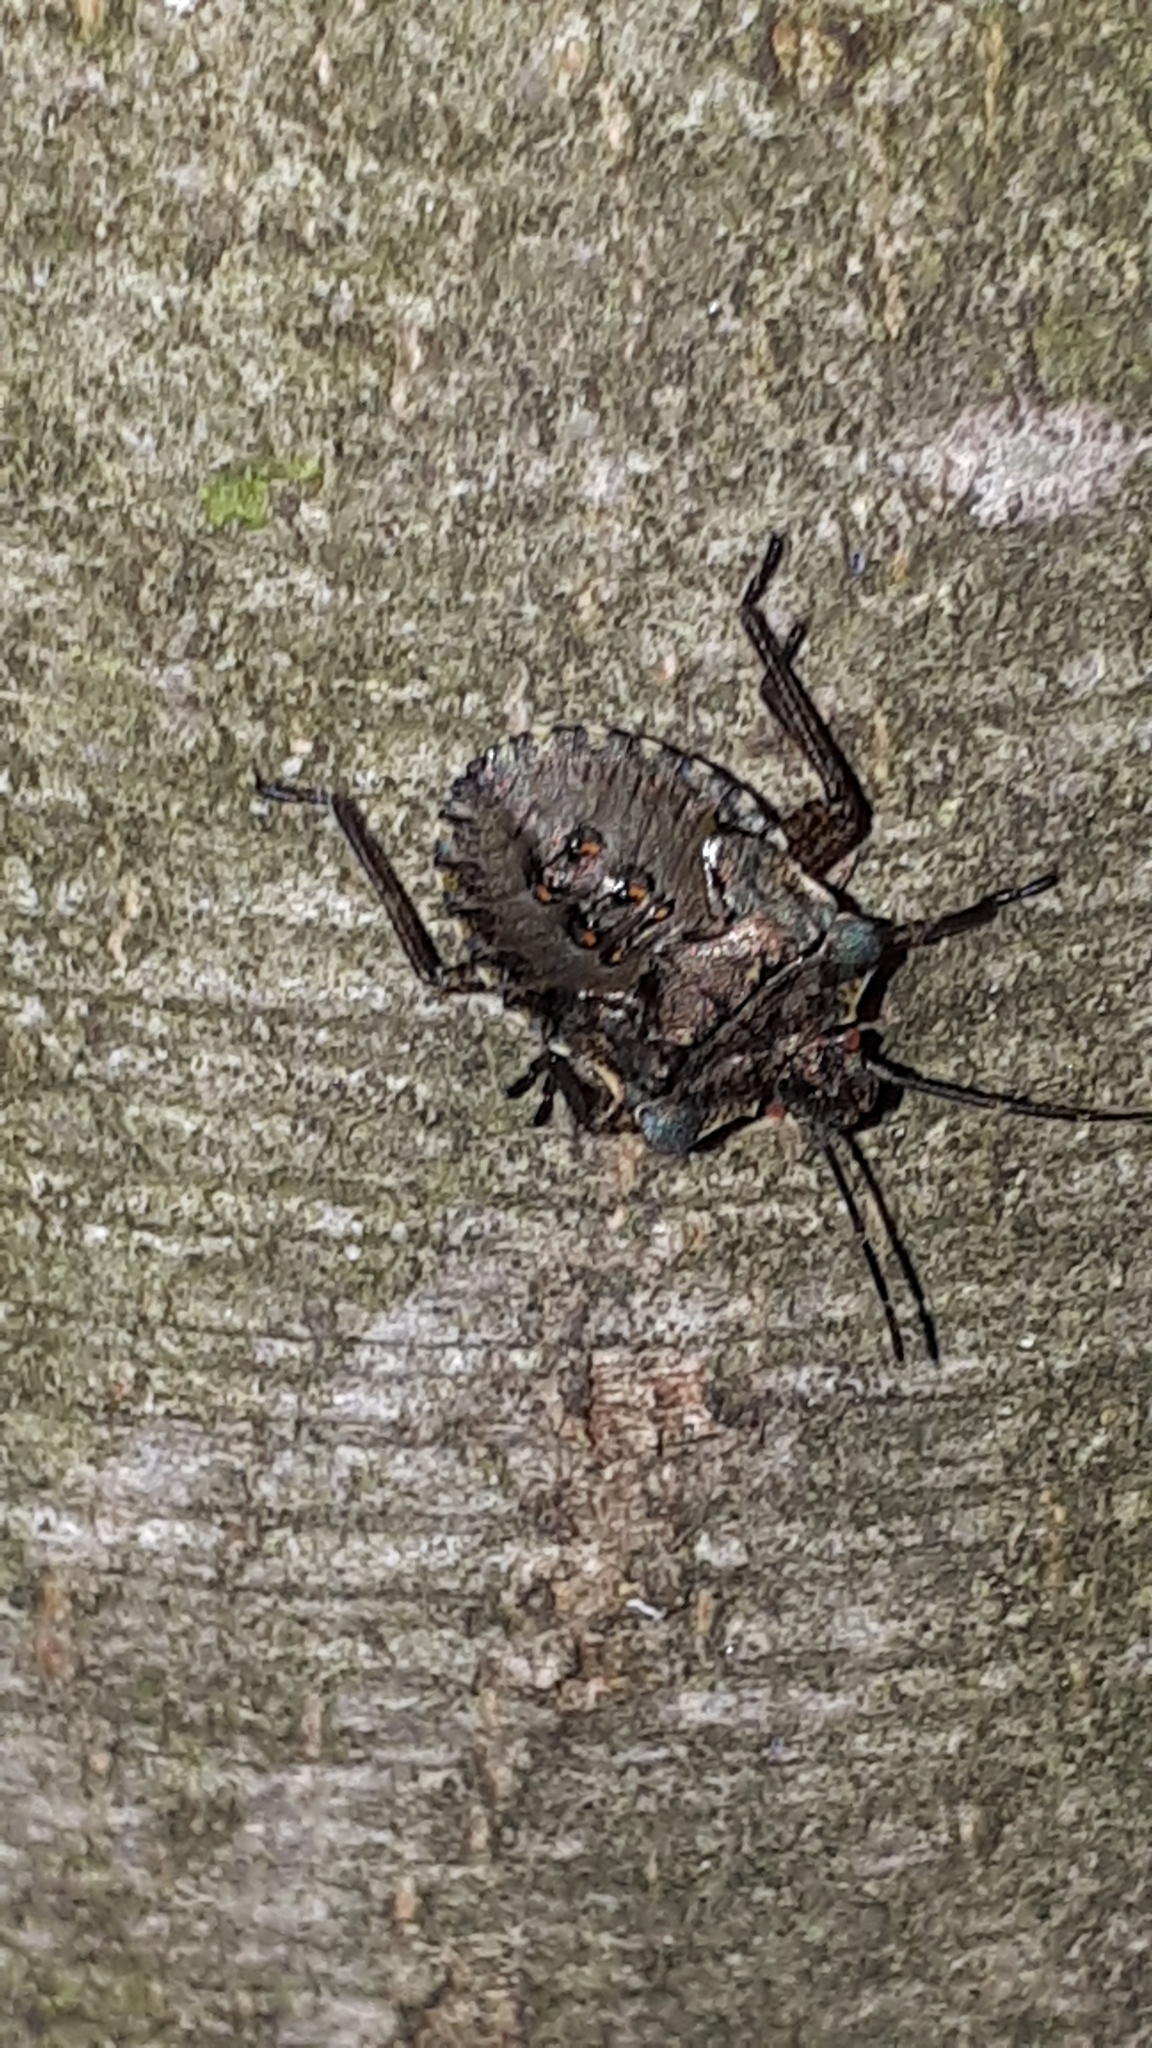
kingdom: Animalia
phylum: Arthropoda
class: Insecta
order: Hemiptera
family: Pentatomidae
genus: Pentatoma
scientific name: Pentatoma rufipes
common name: Forest bug
